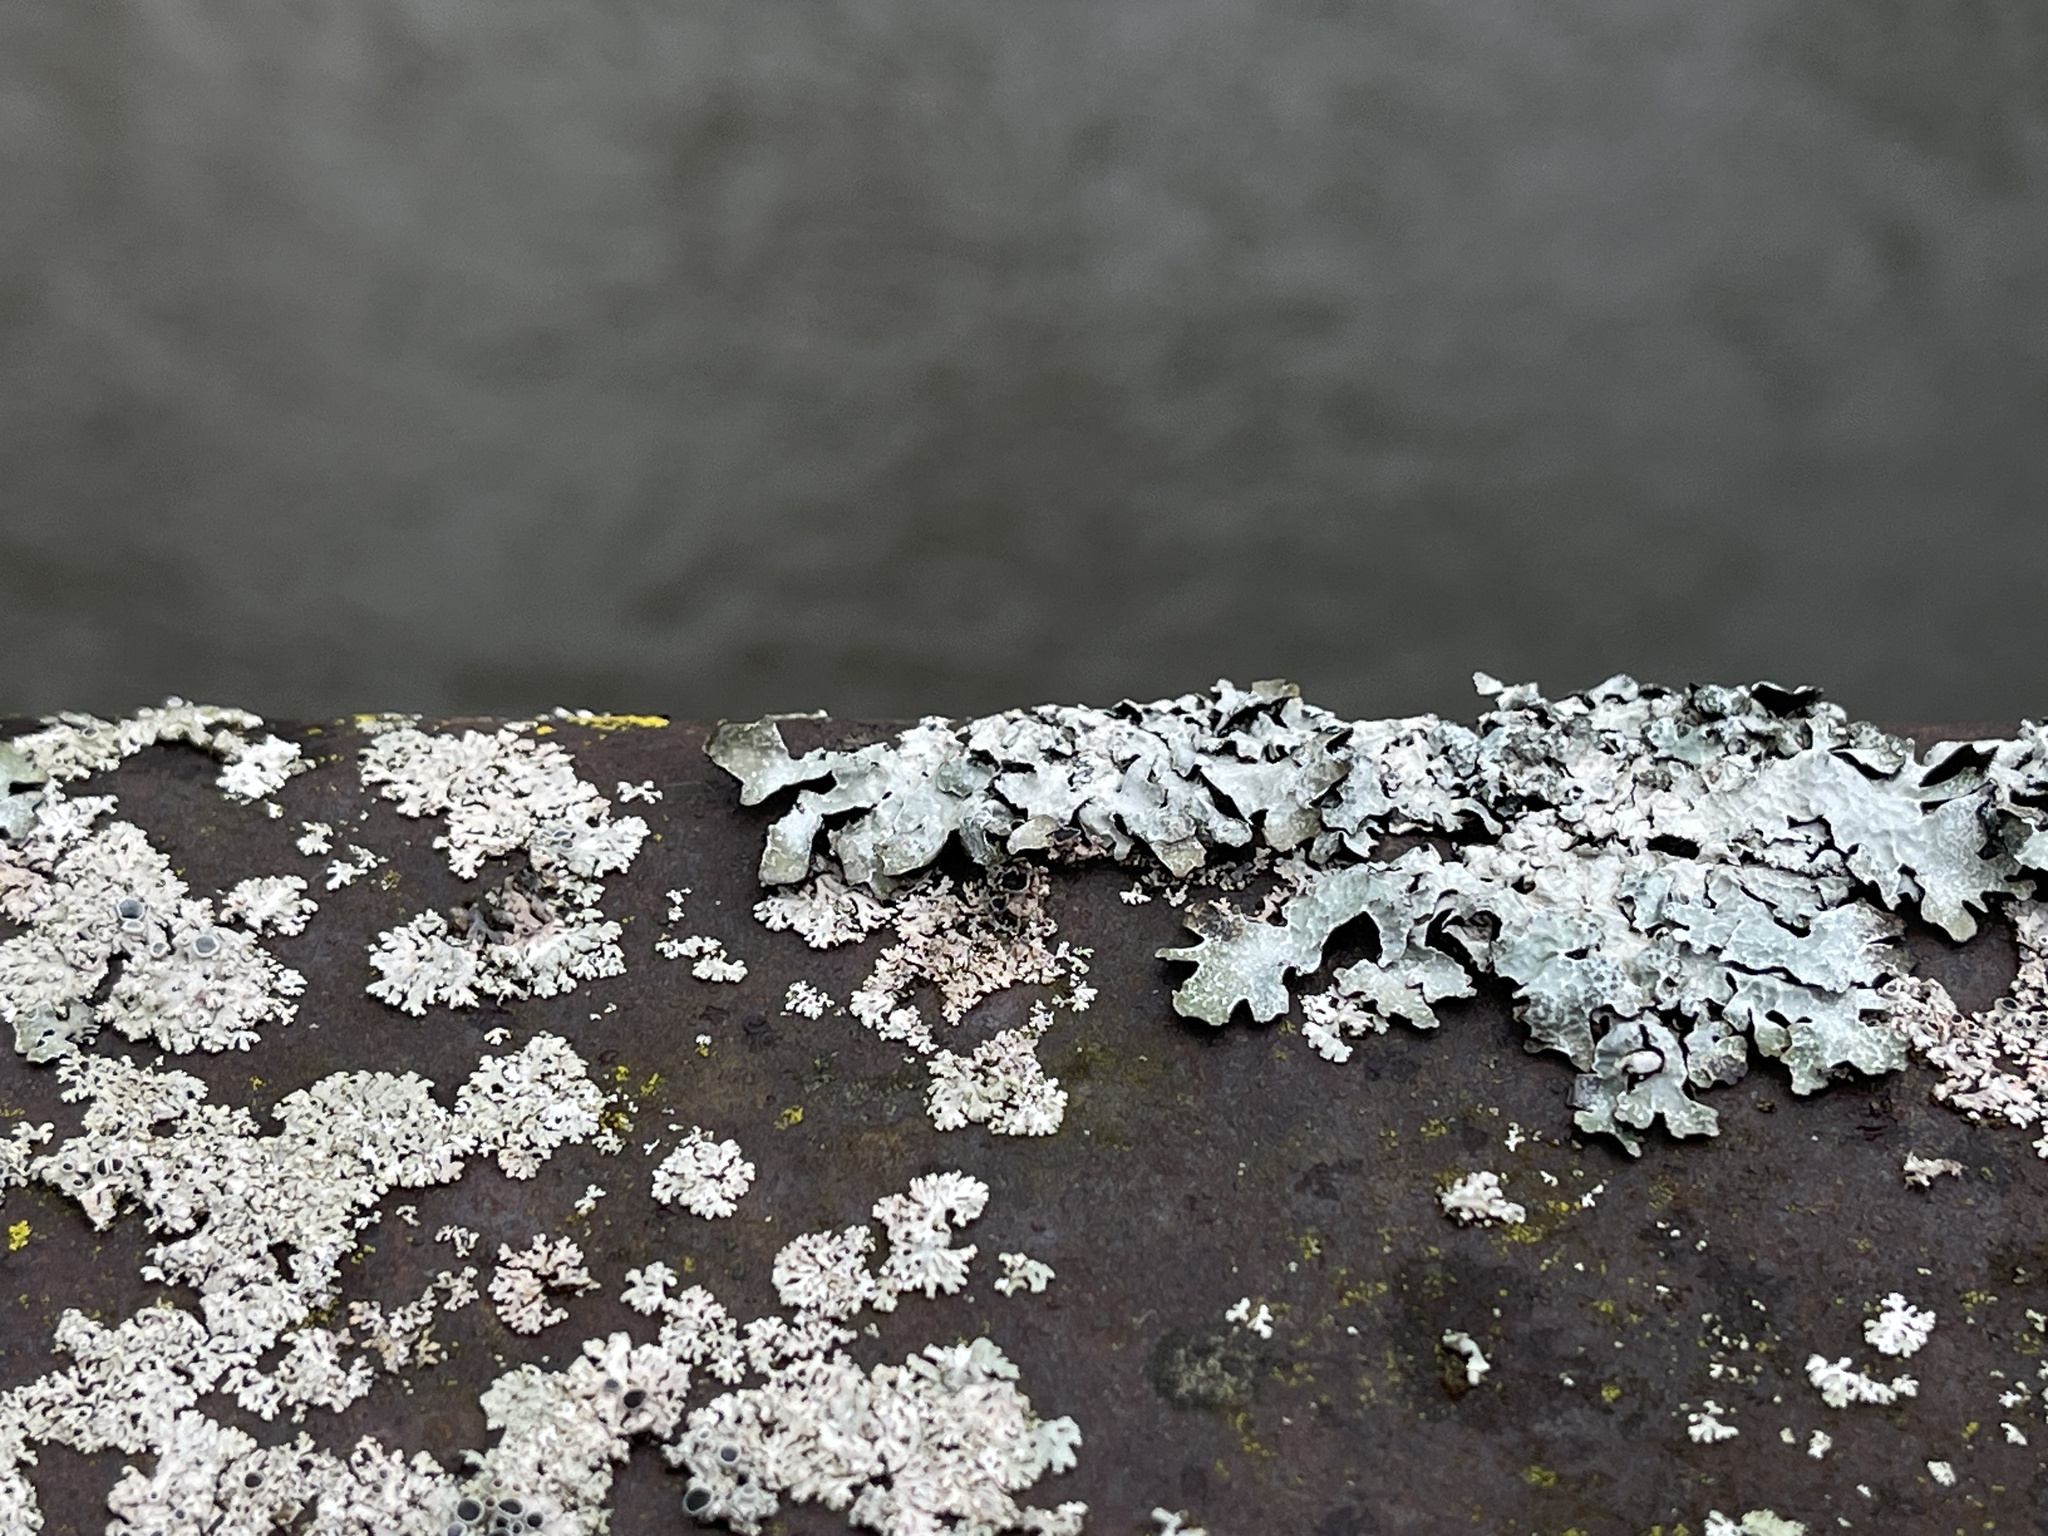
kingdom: Fungi
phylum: Ascomycota
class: Lecanoromycetes
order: Lecanorales
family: Parmeliaceae
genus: Parmelia
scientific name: Parmelia sulcata
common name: Netted shield lichen
